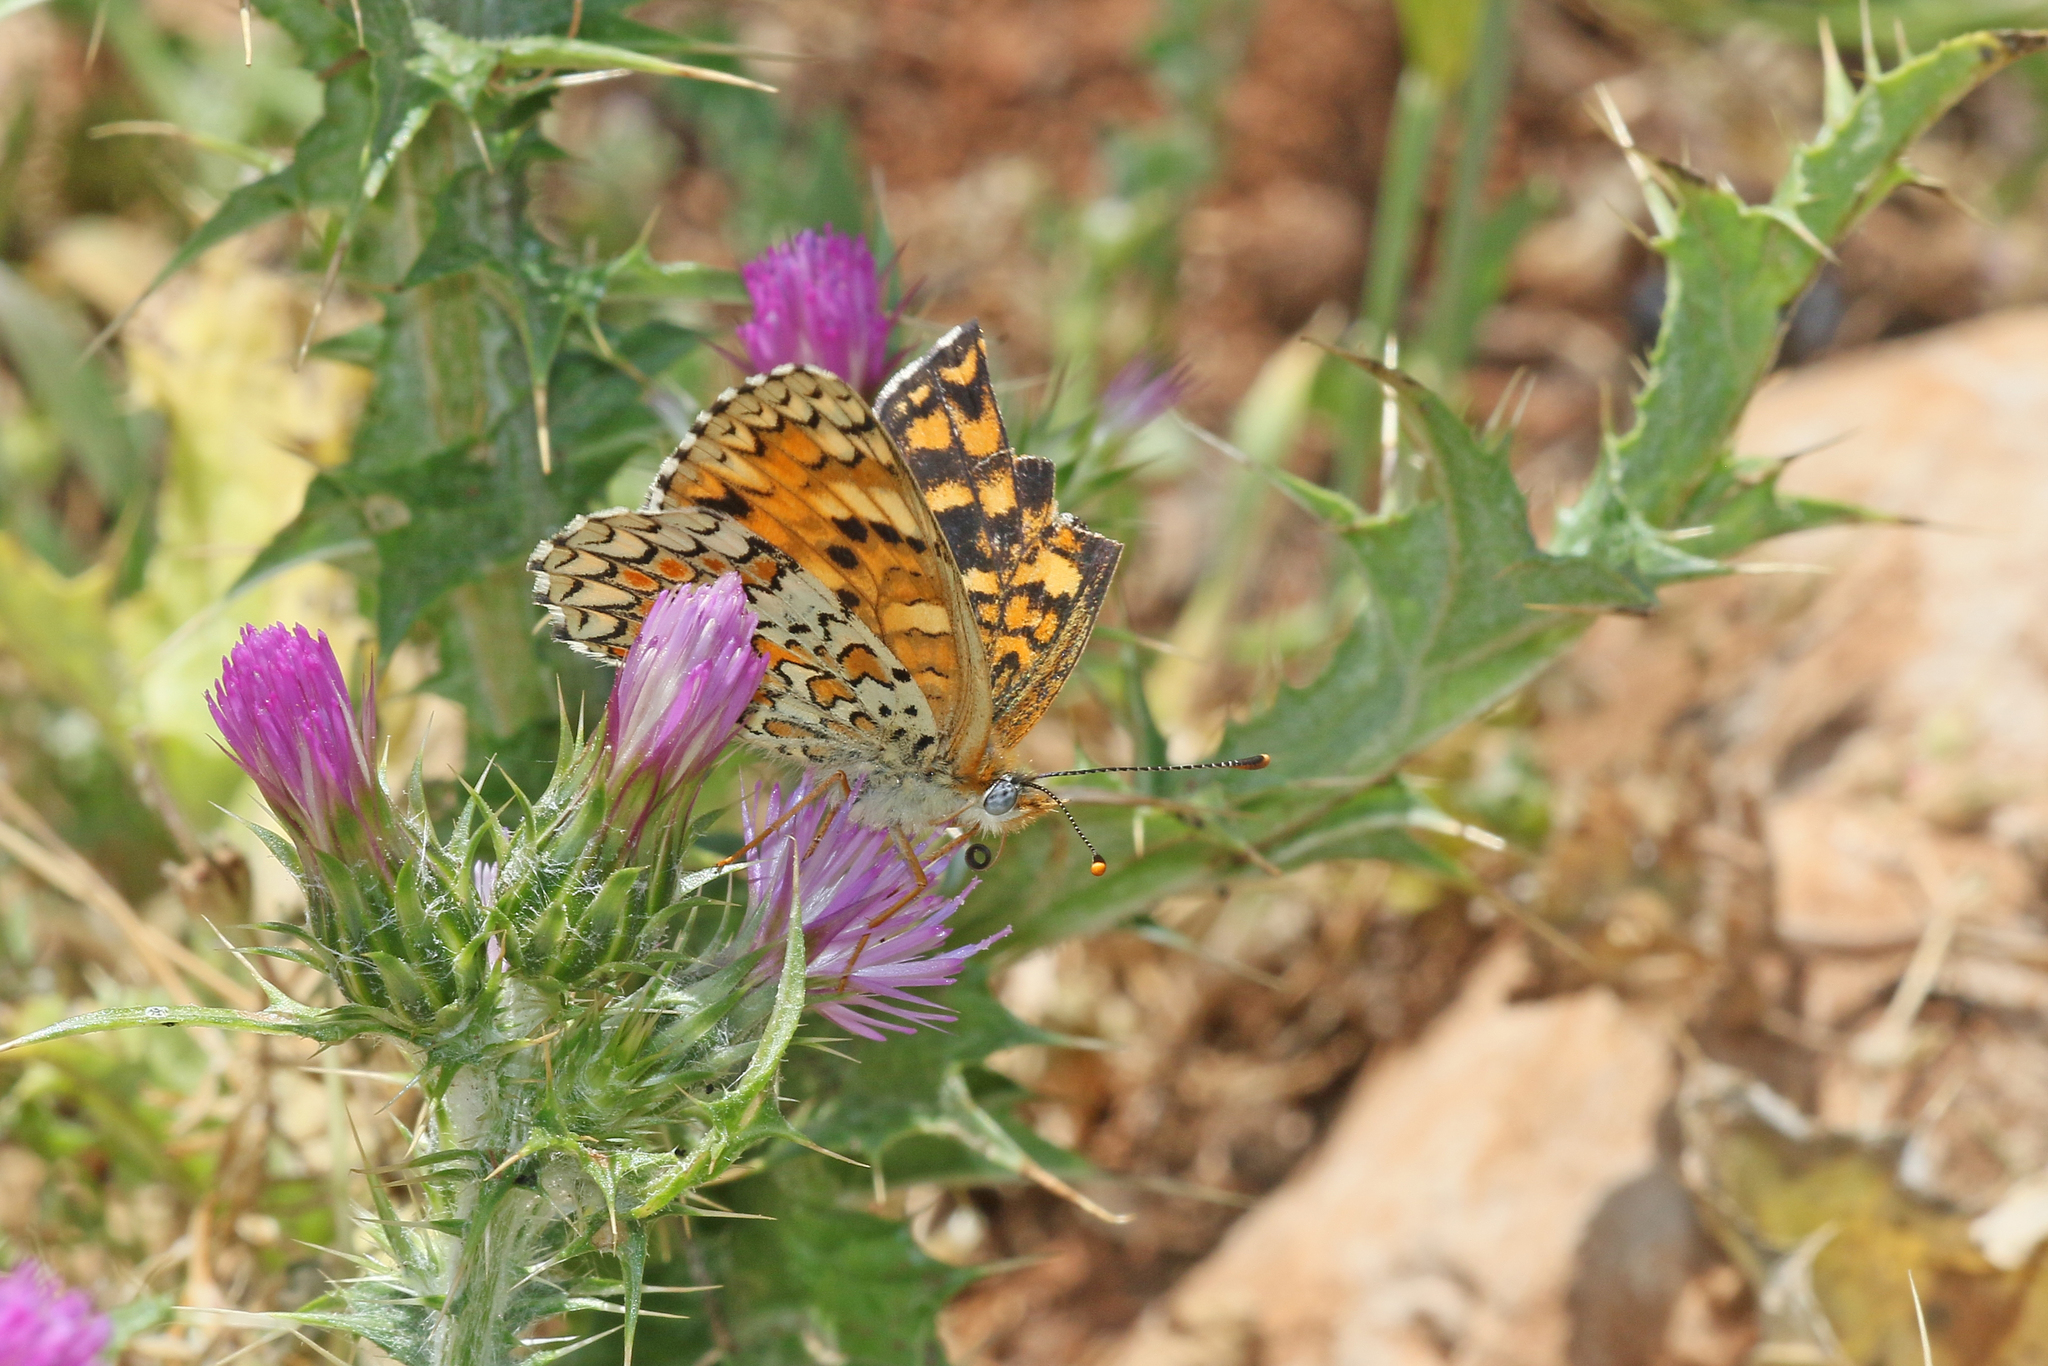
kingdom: Animalia
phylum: Arthropoda
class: Insecta
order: Lepidoptera
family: Nymphalidae
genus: Melitaea
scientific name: Melitaea phoebe
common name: Knapweed fritillary
